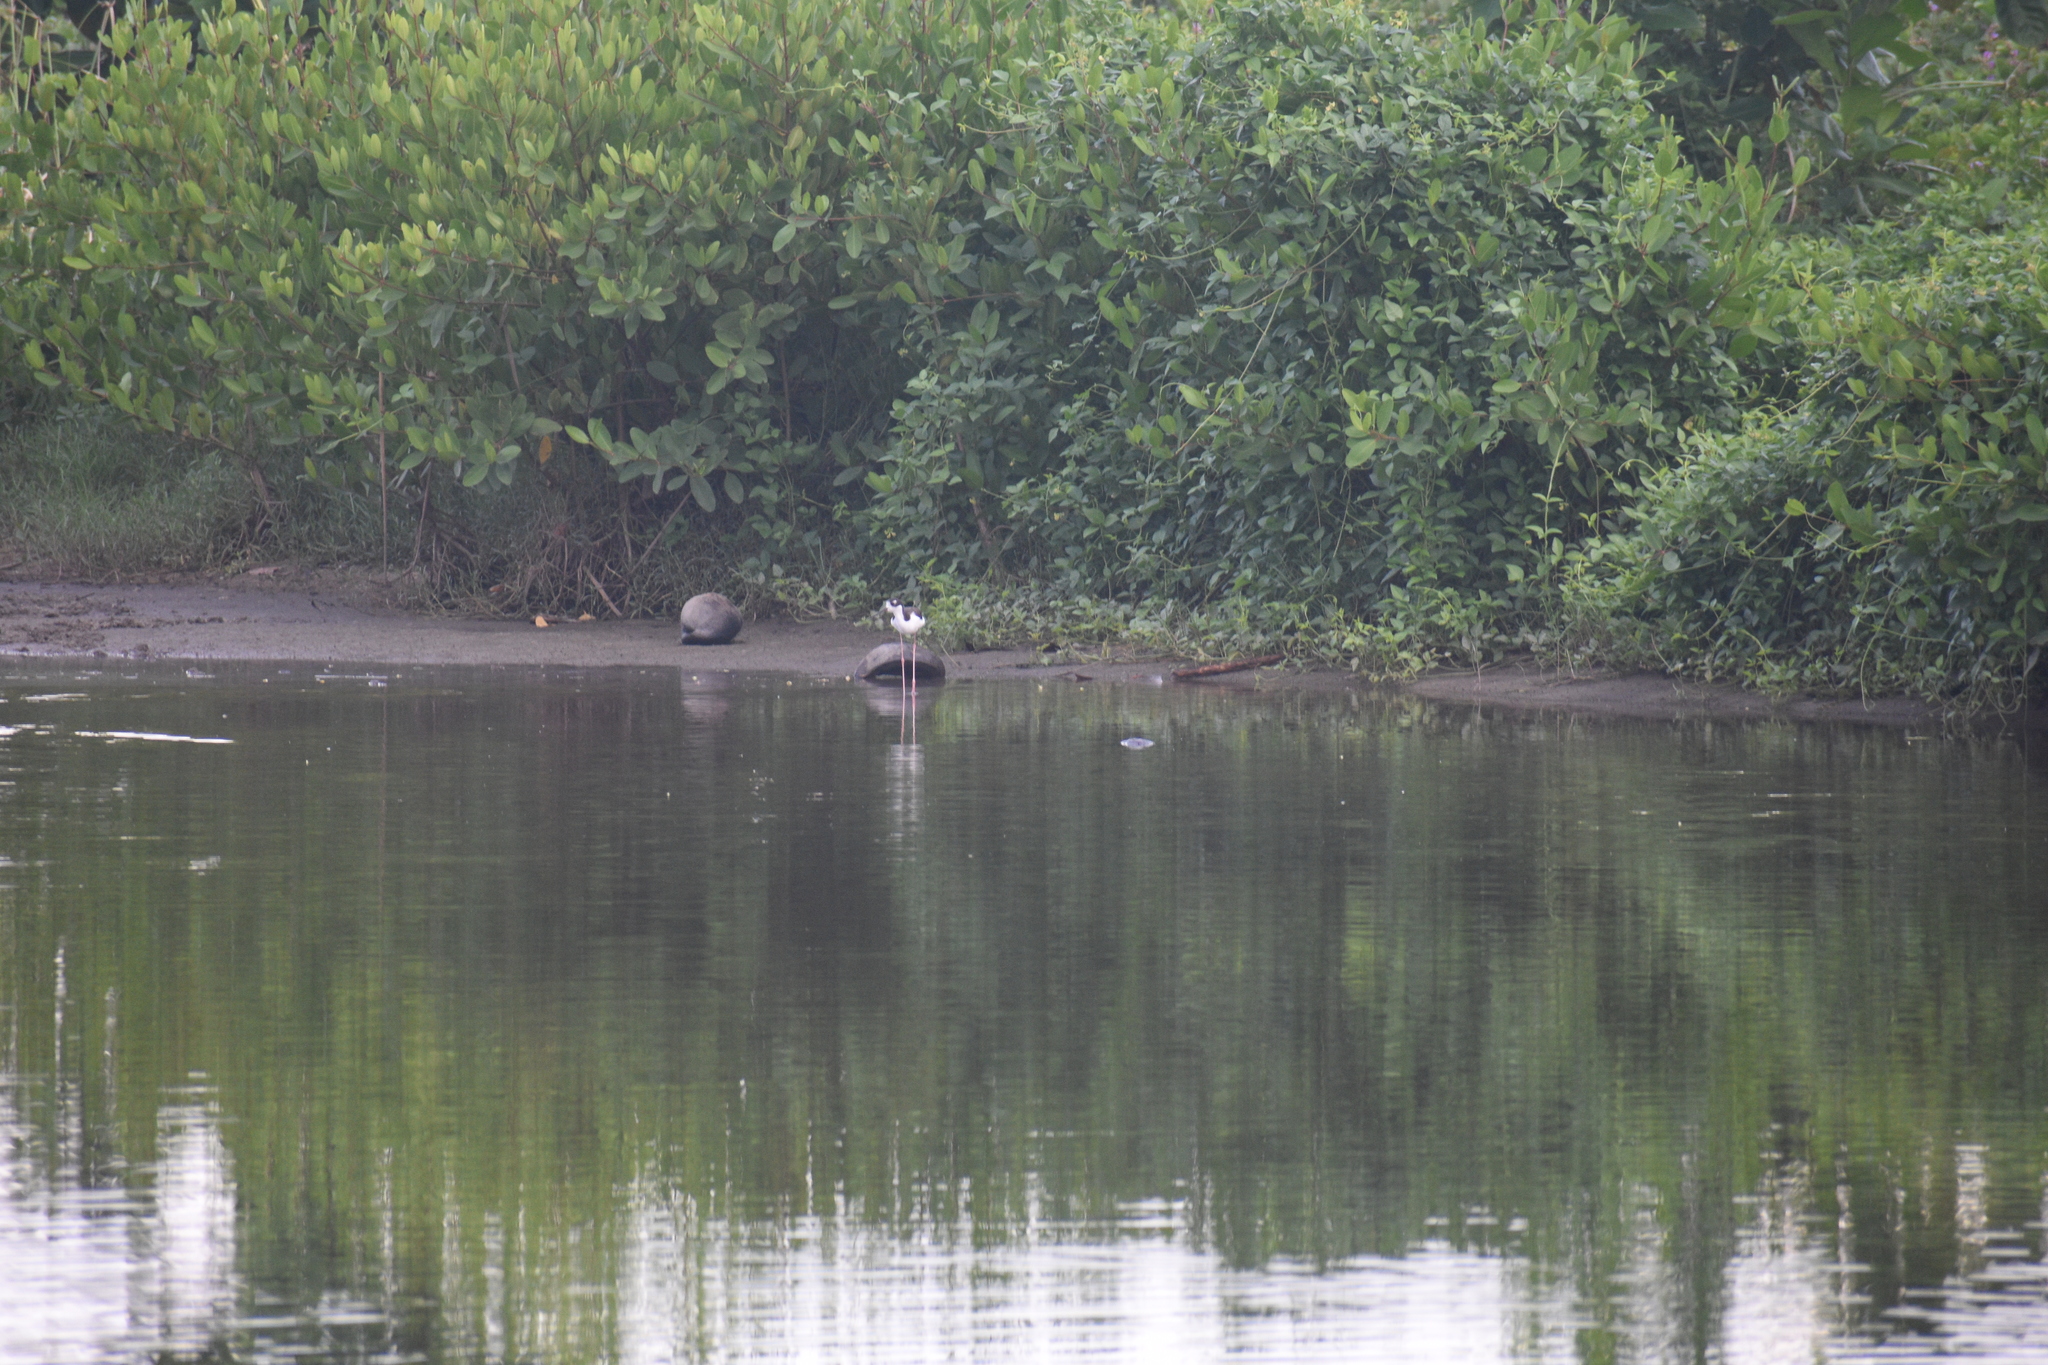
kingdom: Animalia
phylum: Chordata
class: Aves
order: Charadriiformes
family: Recurvirostridae
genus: Himantopus
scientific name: Himantopus mexicanus
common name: Black-necked stilt
